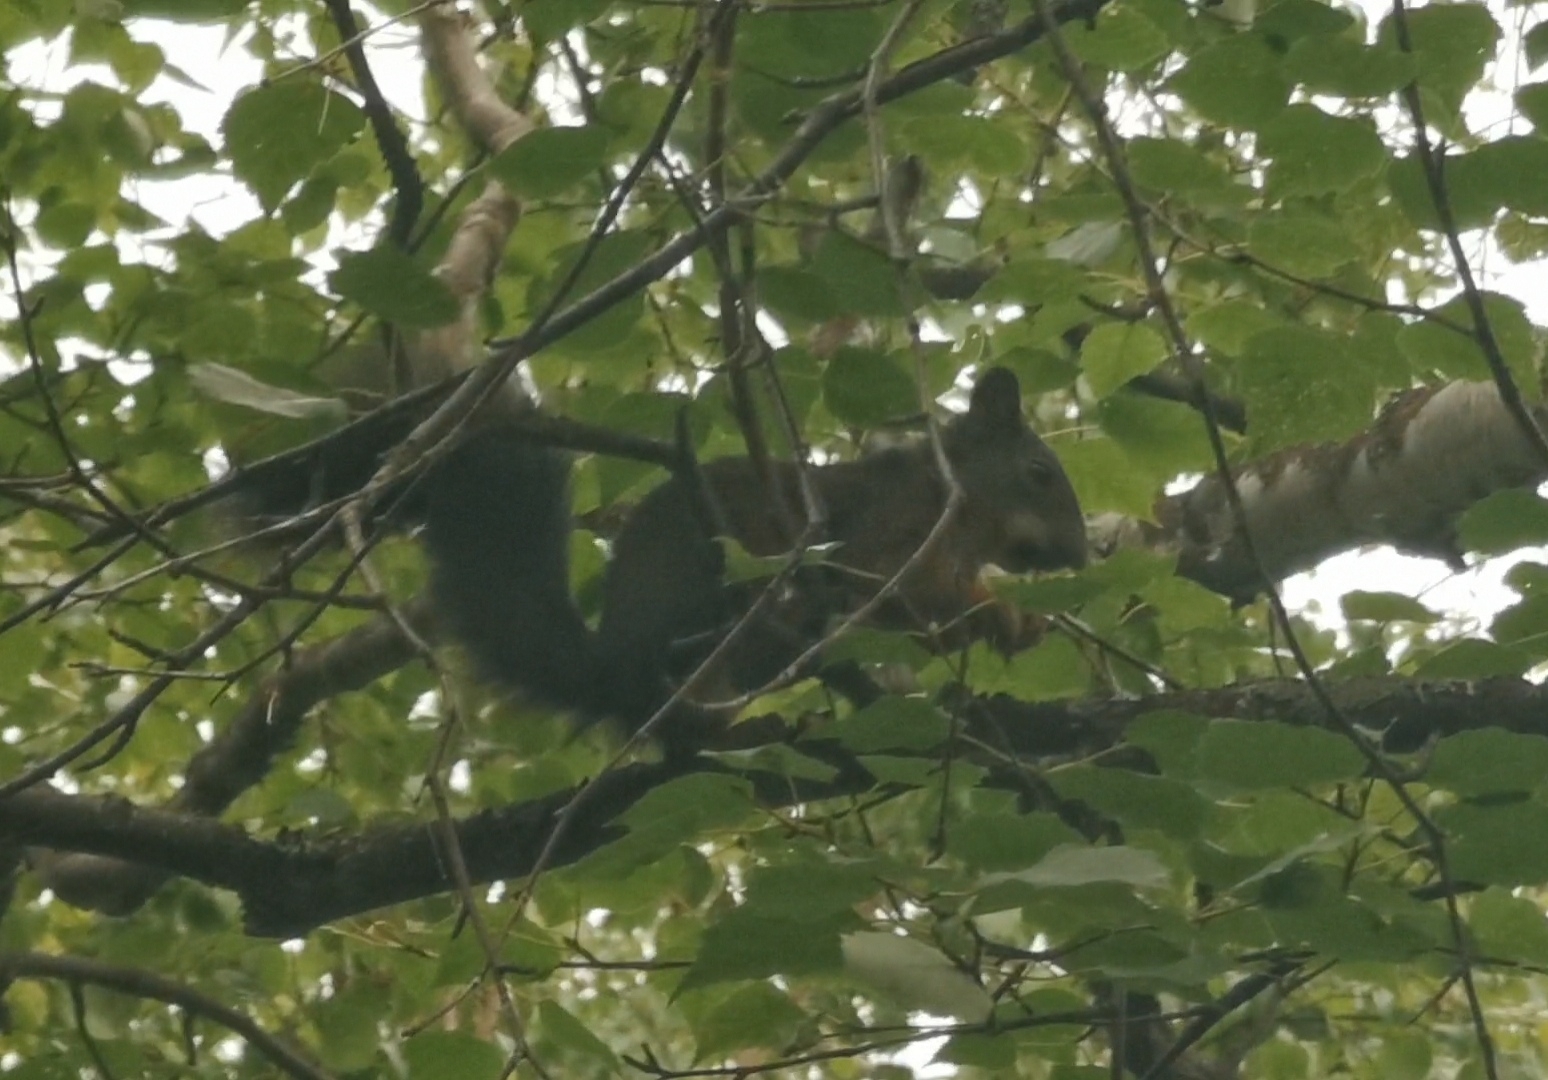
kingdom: Animalia
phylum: Chordata
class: Mammalia
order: Rodentia
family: Sciuridae
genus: Sciurus
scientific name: Sciurus vulgaris
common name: Eurasian red squirrel
